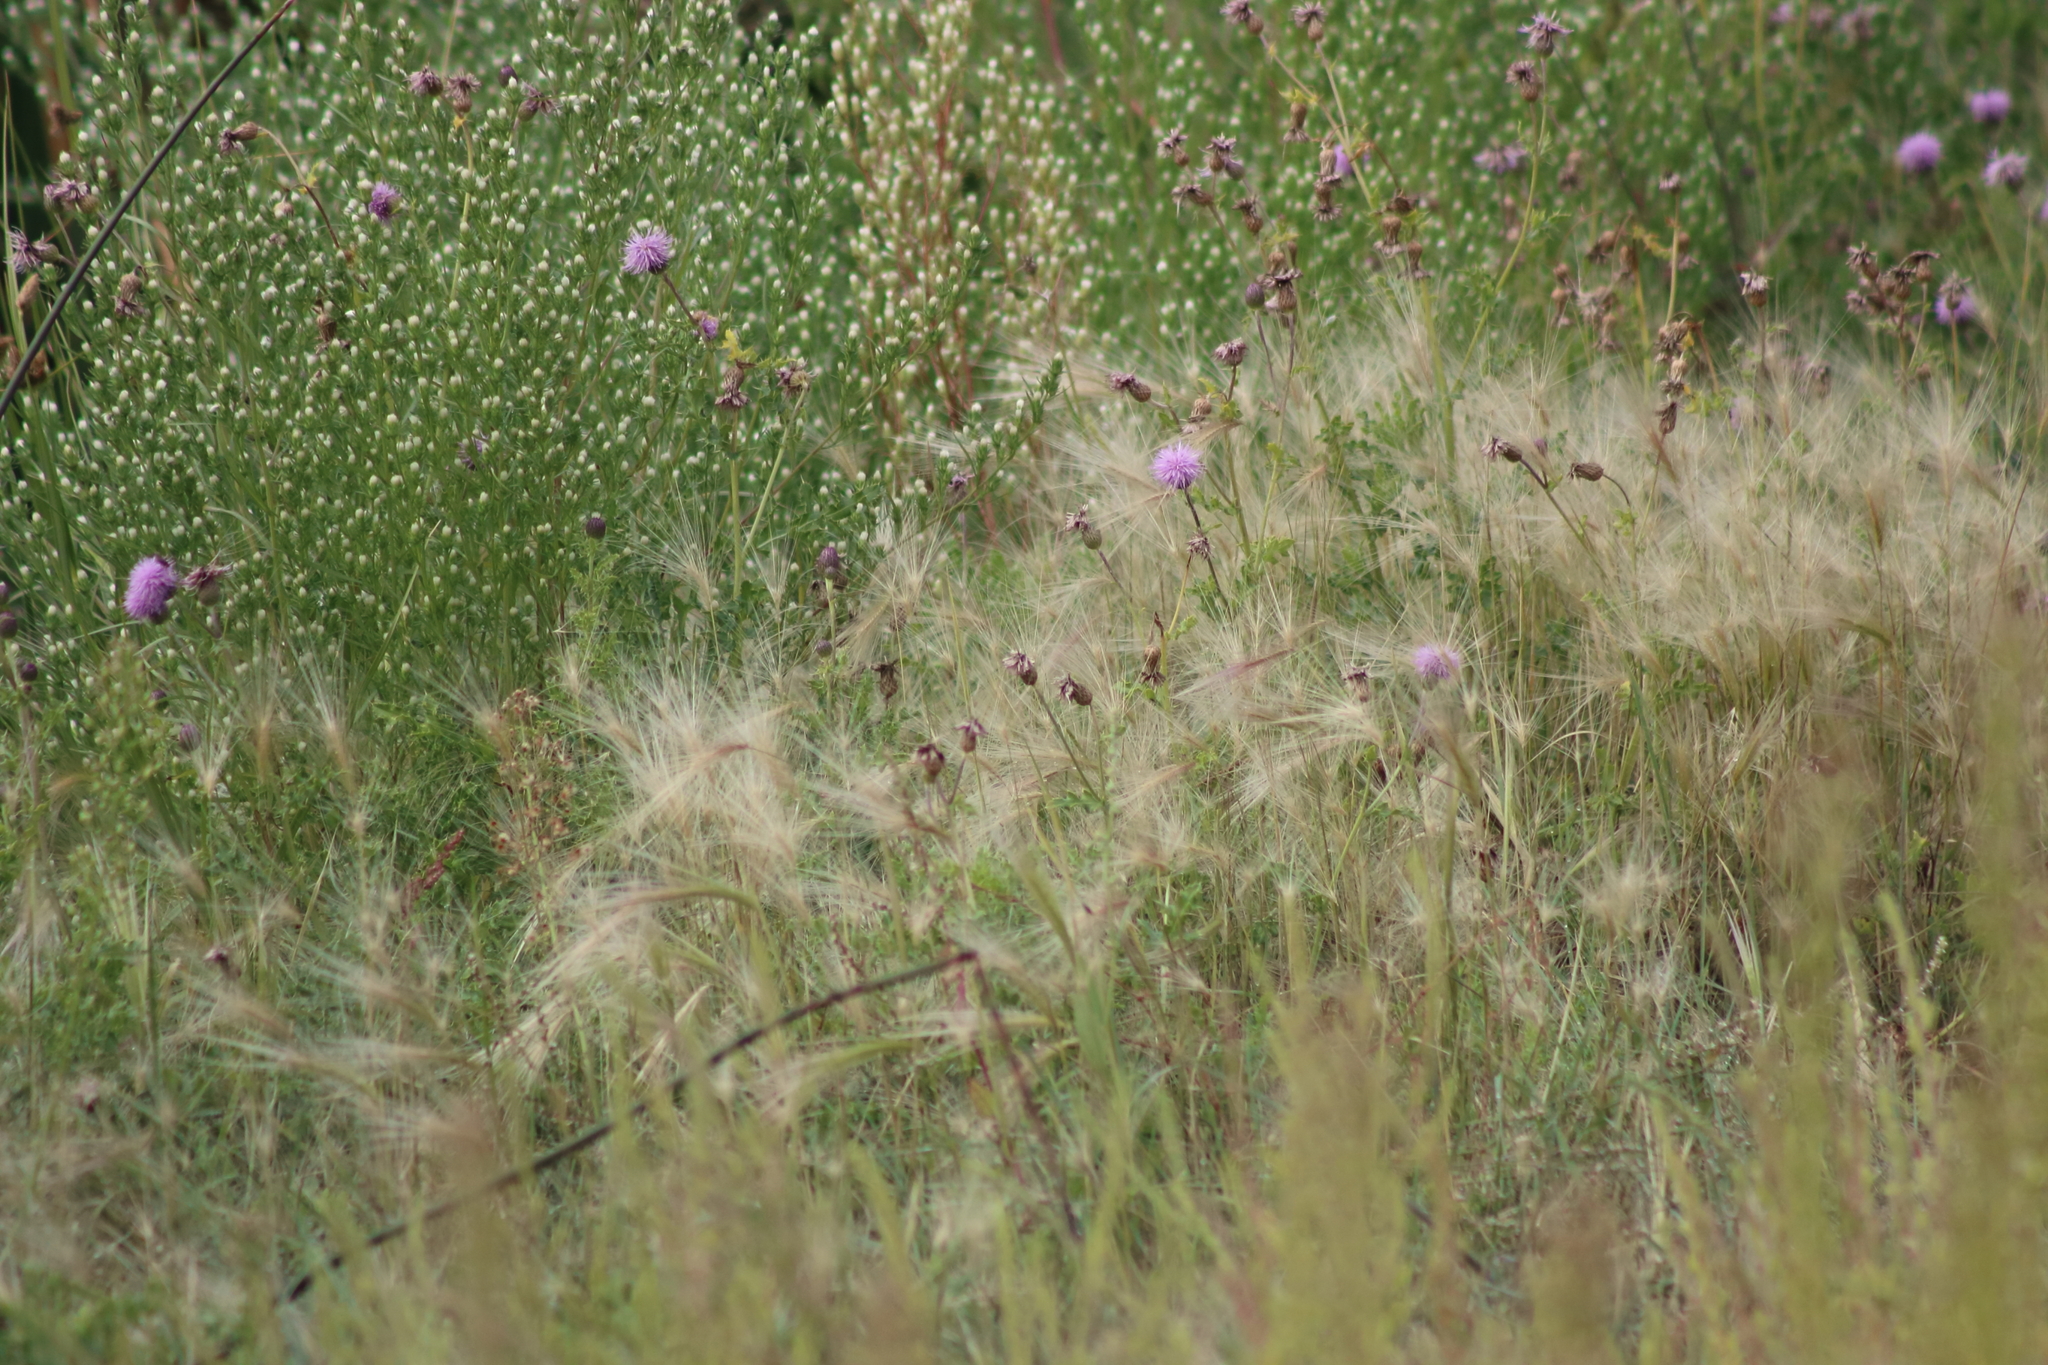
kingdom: Plantae
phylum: Tracheophyta
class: Liliopsida
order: Poales
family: Poaceae
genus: Hordeum
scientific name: Hordeum jubatum
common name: Foxtail barley
